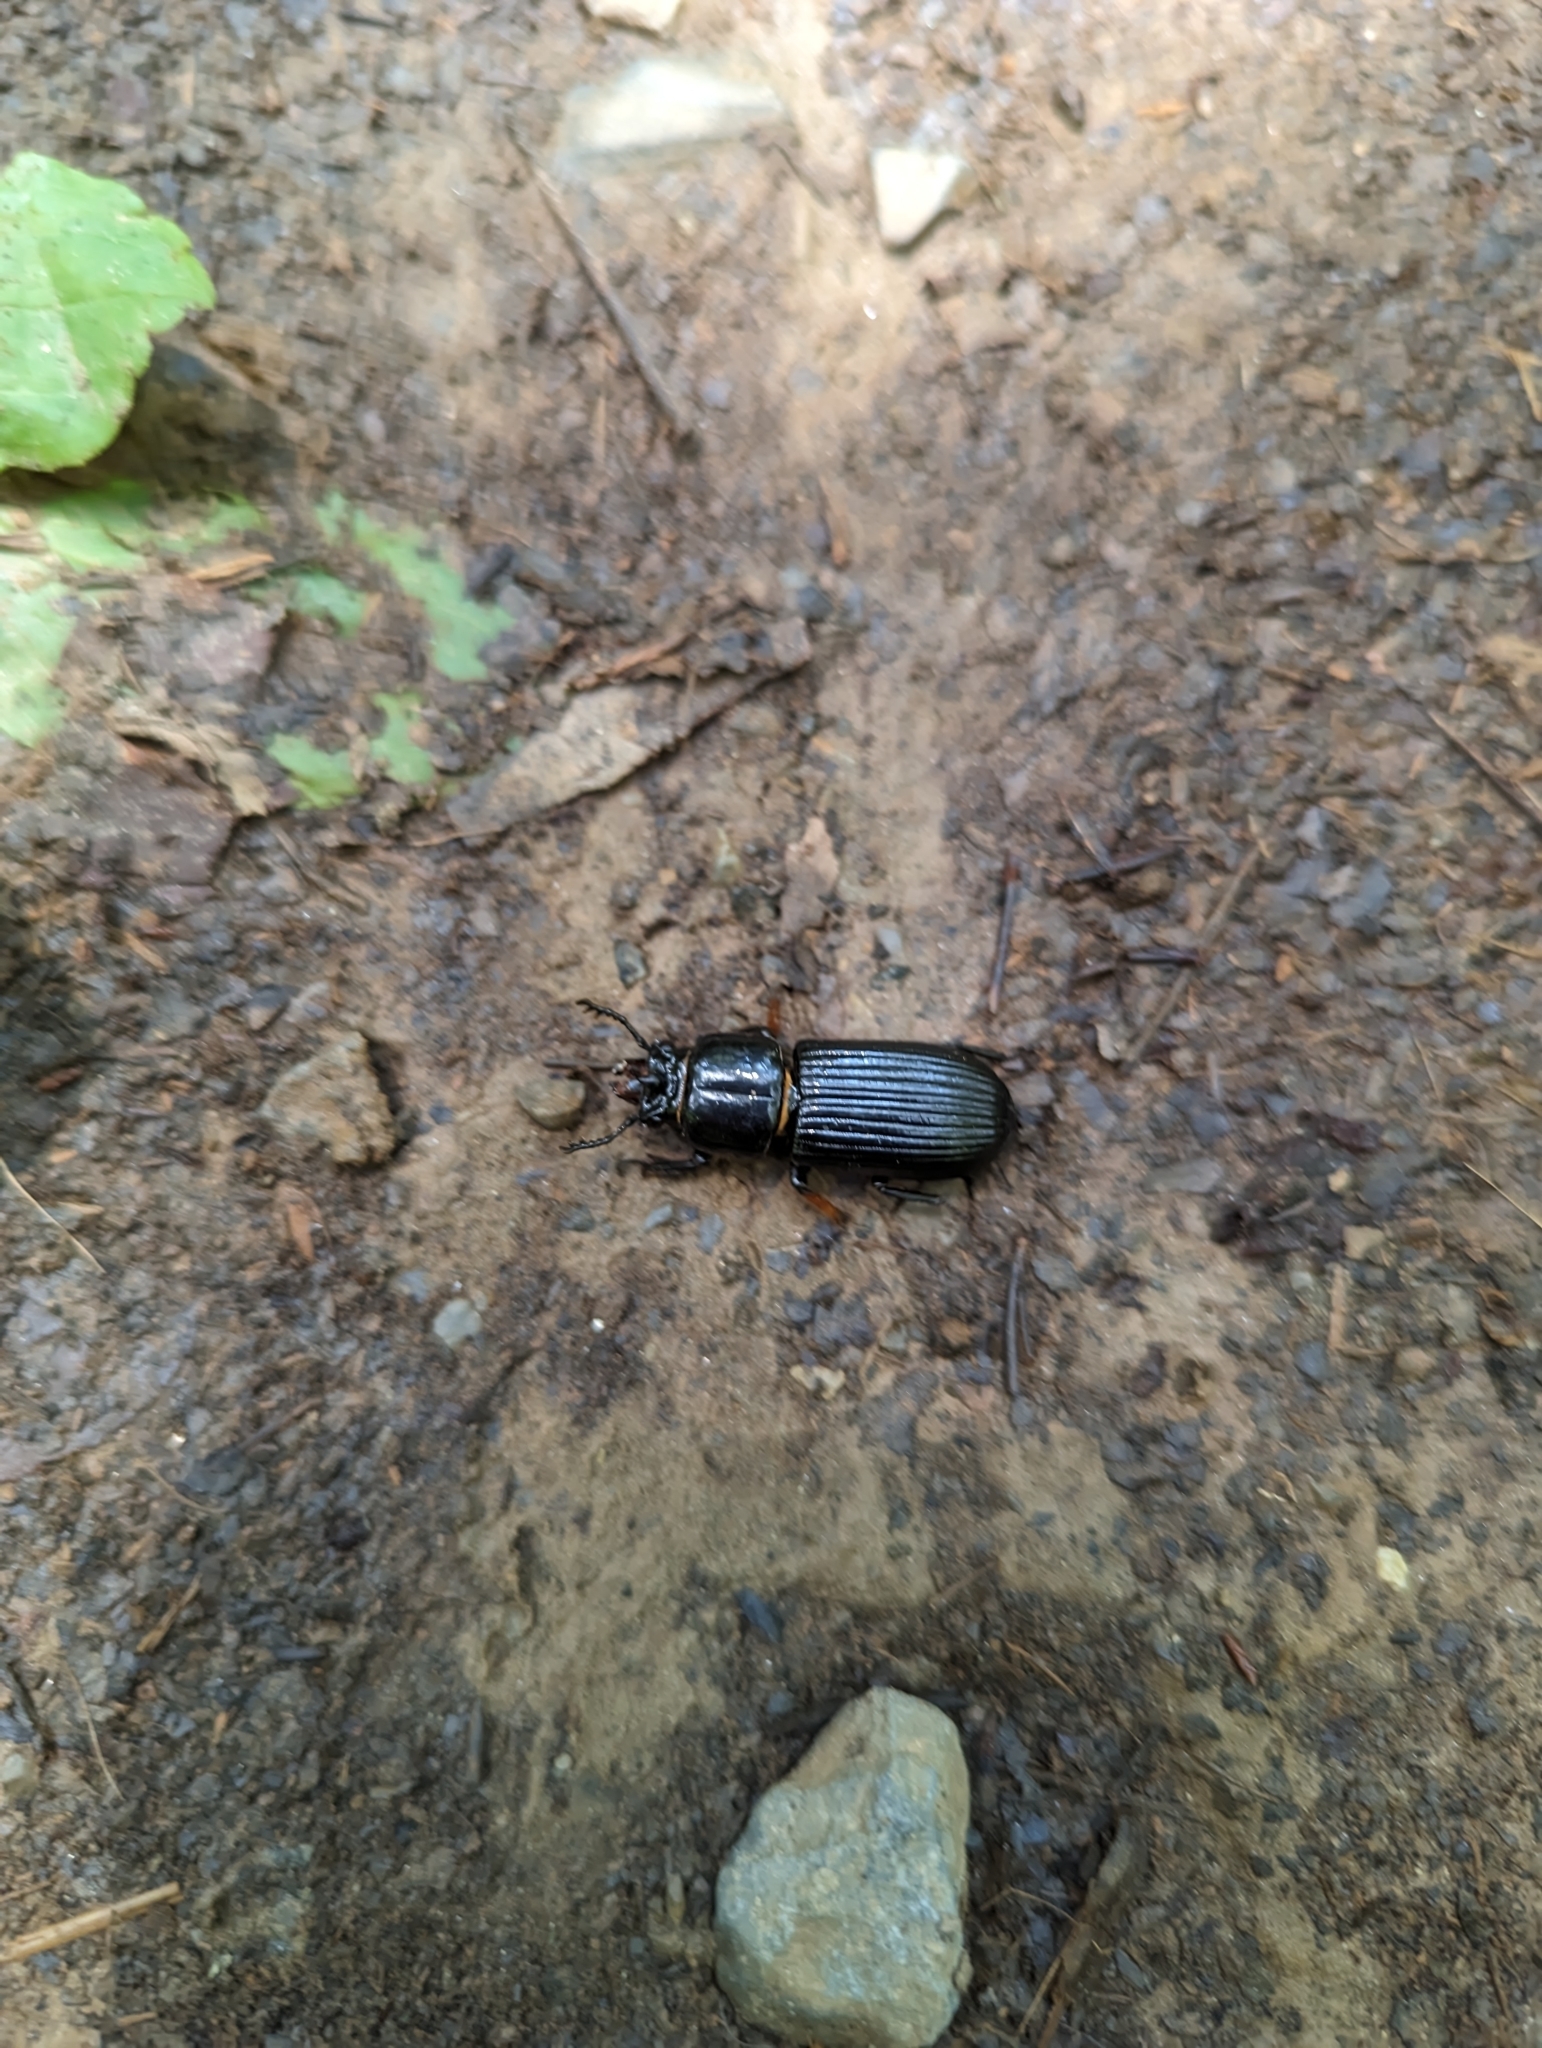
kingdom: Animalia
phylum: Arthropoda
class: Insecta
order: Coleoptera
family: Passalidae
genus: Odontotaenius
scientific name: Odontotaenius disjunctus
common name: Patent leather beetle
